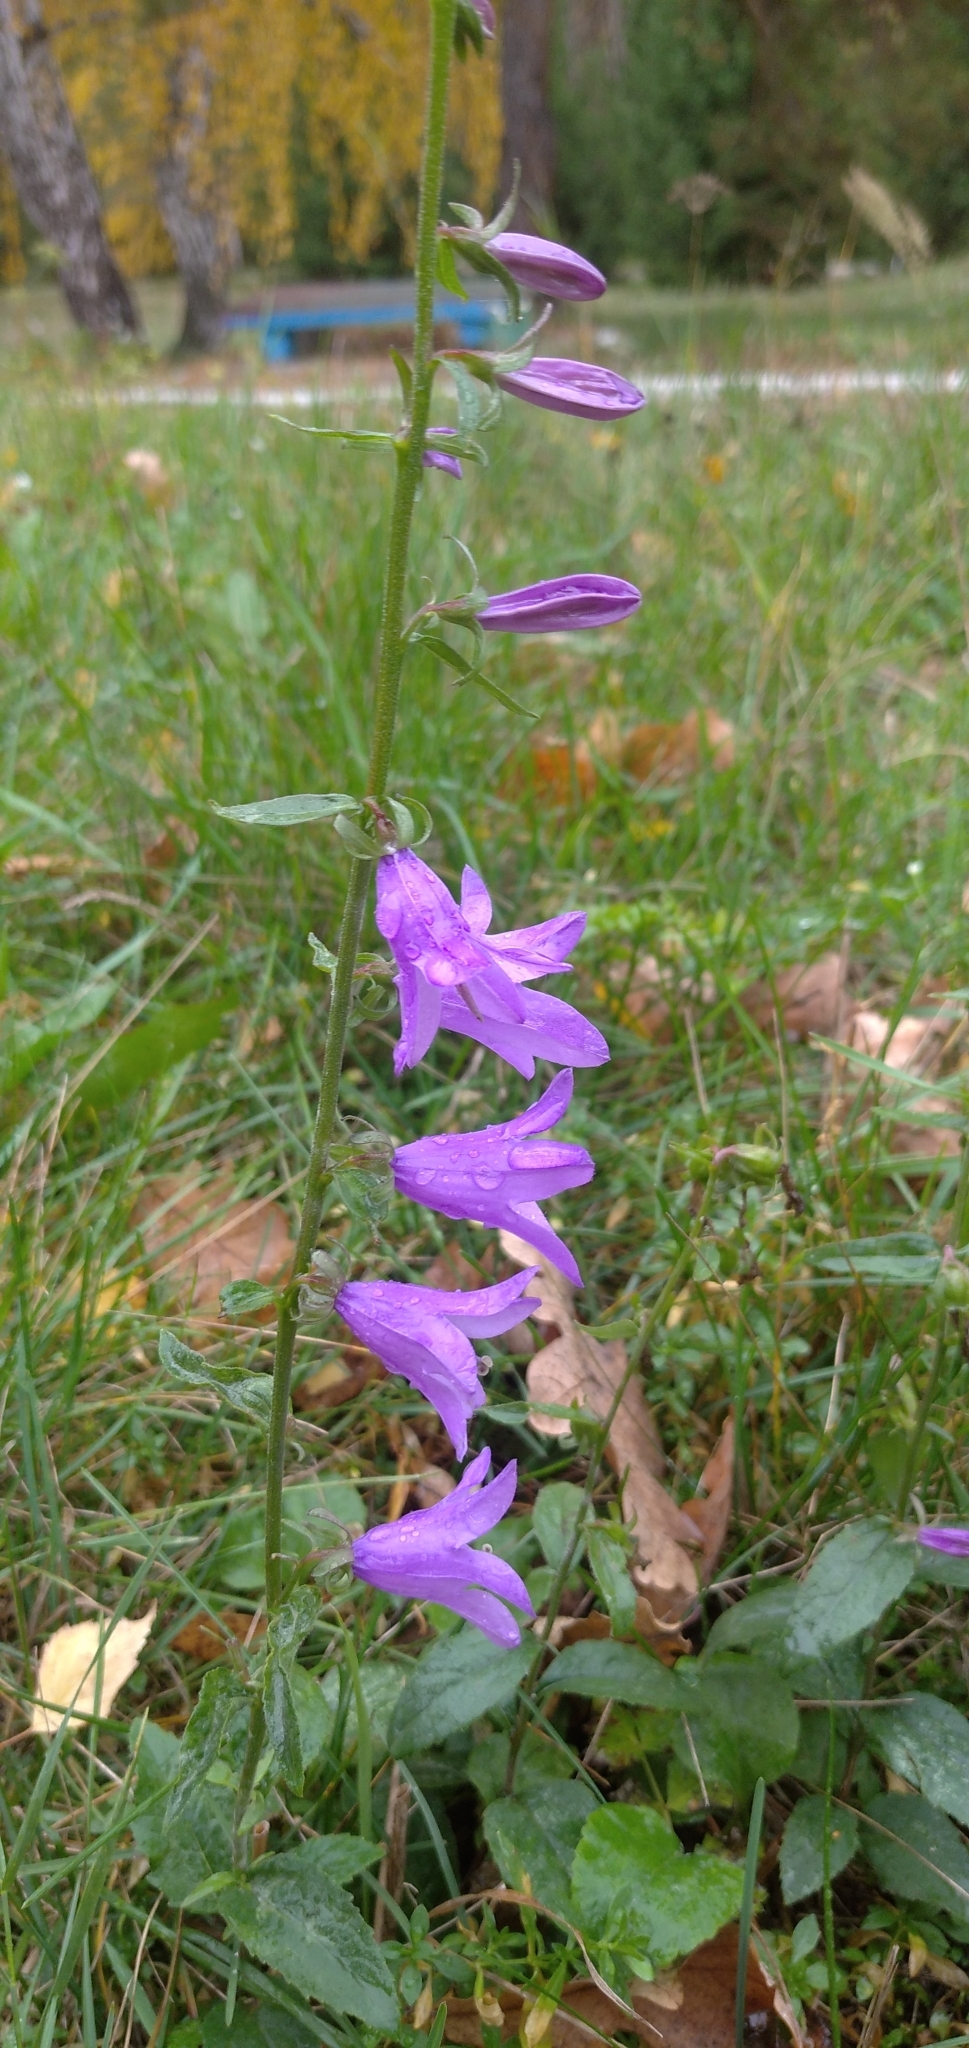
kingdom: Plantae
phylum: Tracheophyta
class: Magnoliopsida
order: Asterales
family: Campanulaceae
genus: Campanula
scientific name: Campanula rapunculoides
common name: Creeping bellflower
